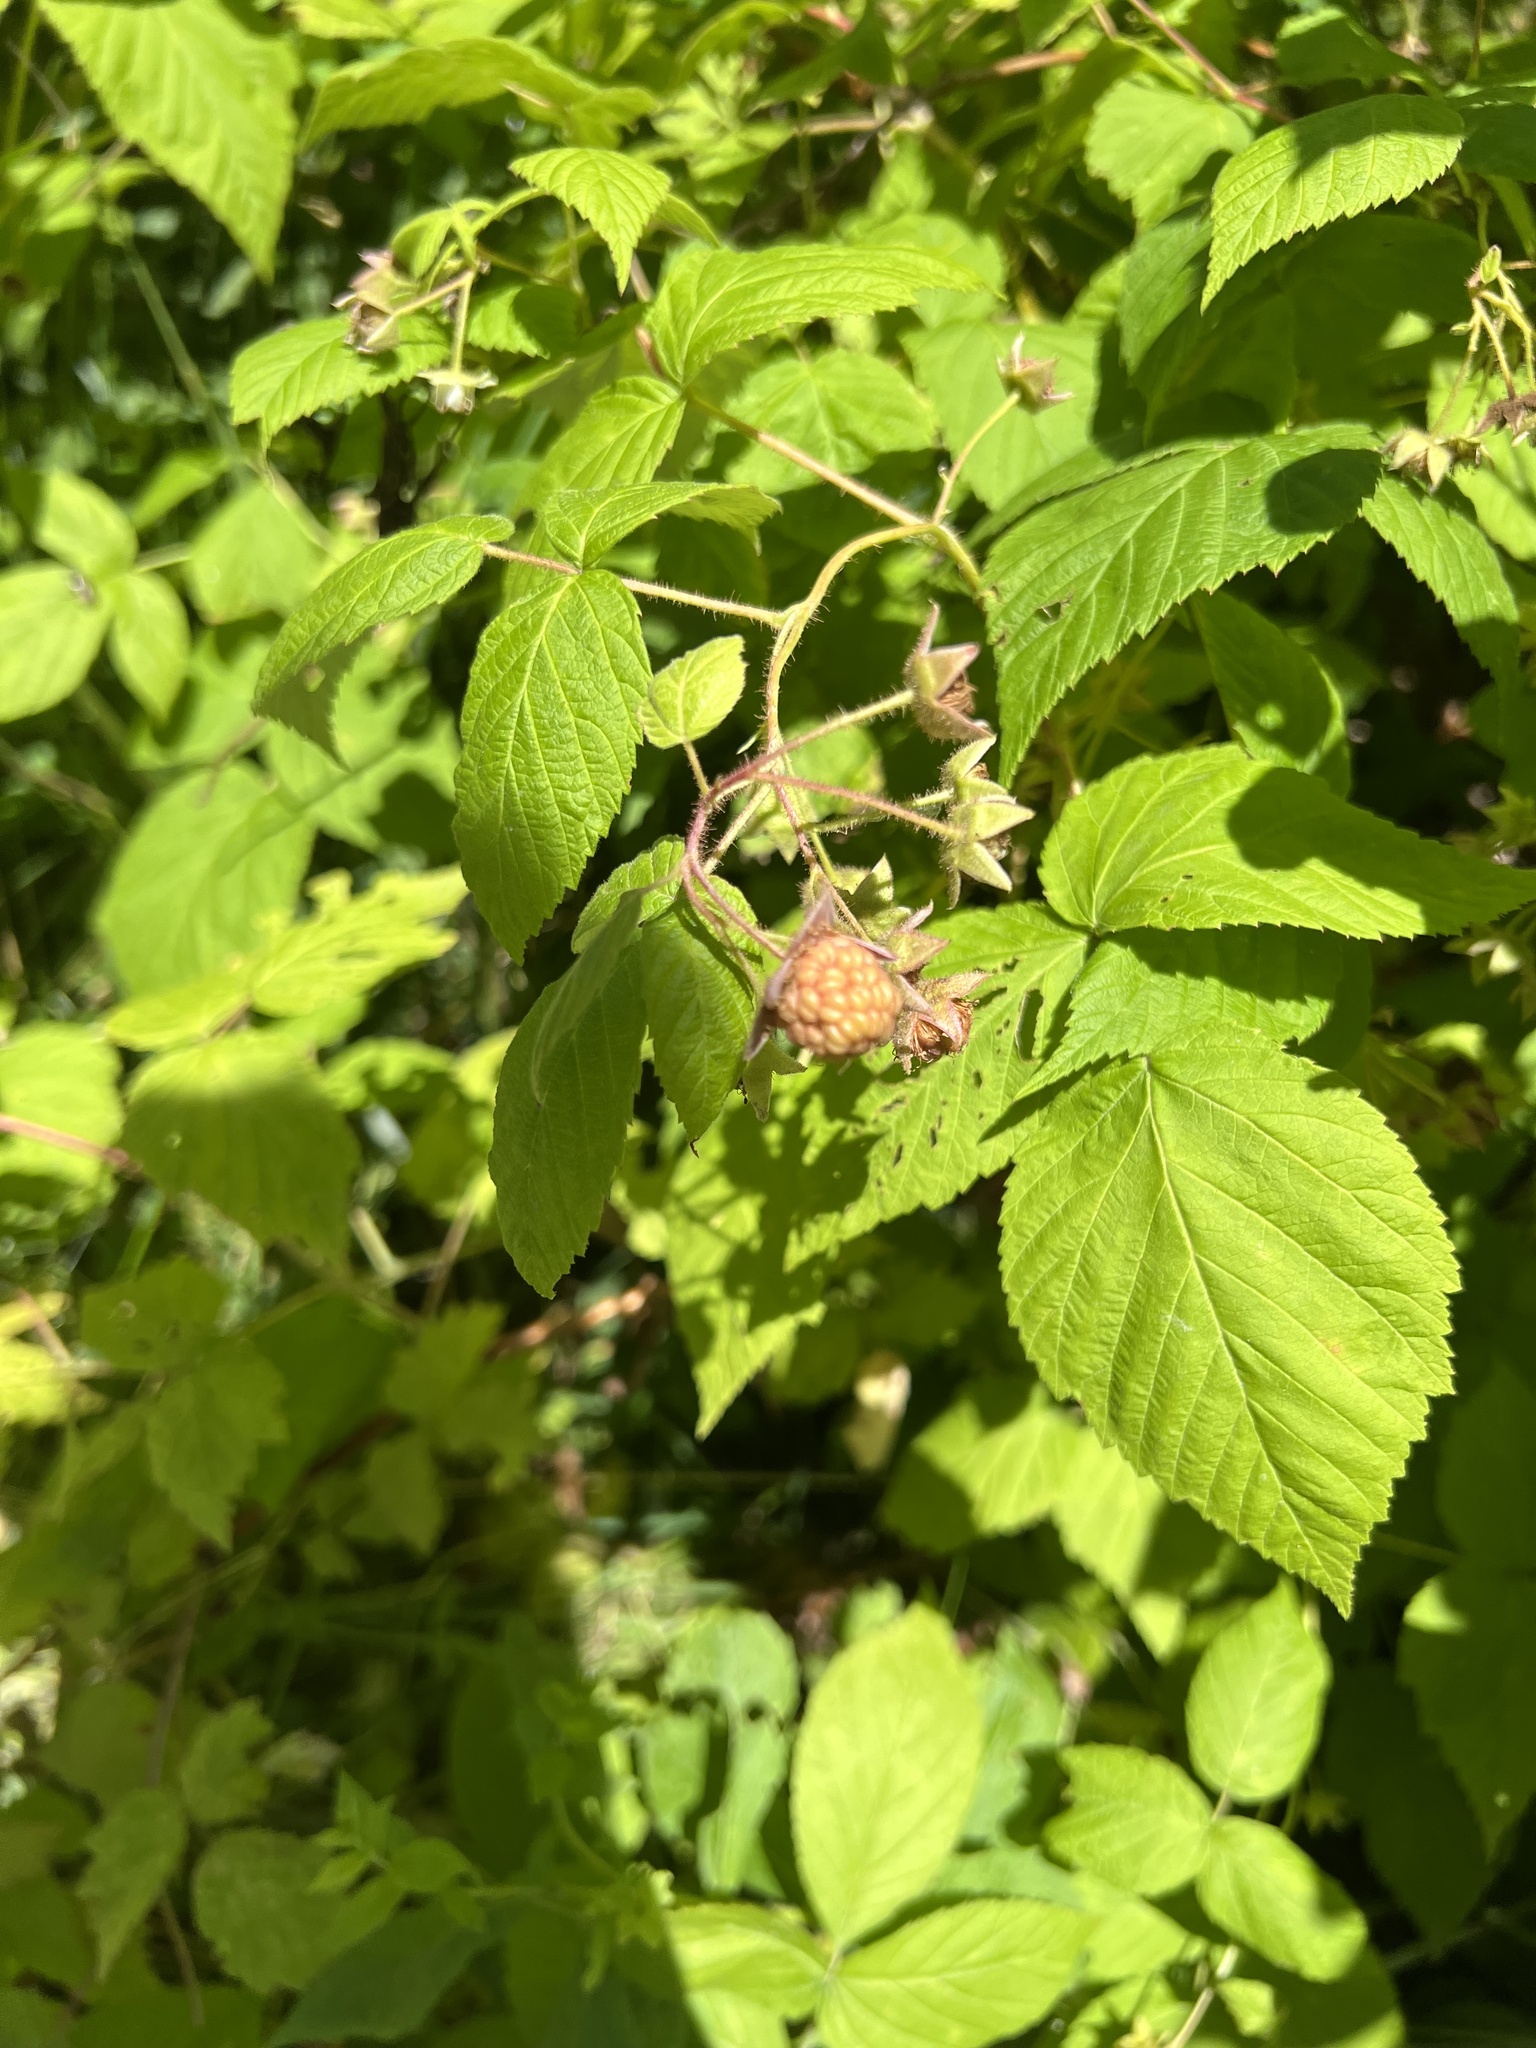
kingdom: Plantae
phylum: Tracheophyta
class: Magnoliopsida
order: Rosales
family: Rosaceae
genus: Rubus
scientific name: Rubus idaeus
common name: Raspberry
